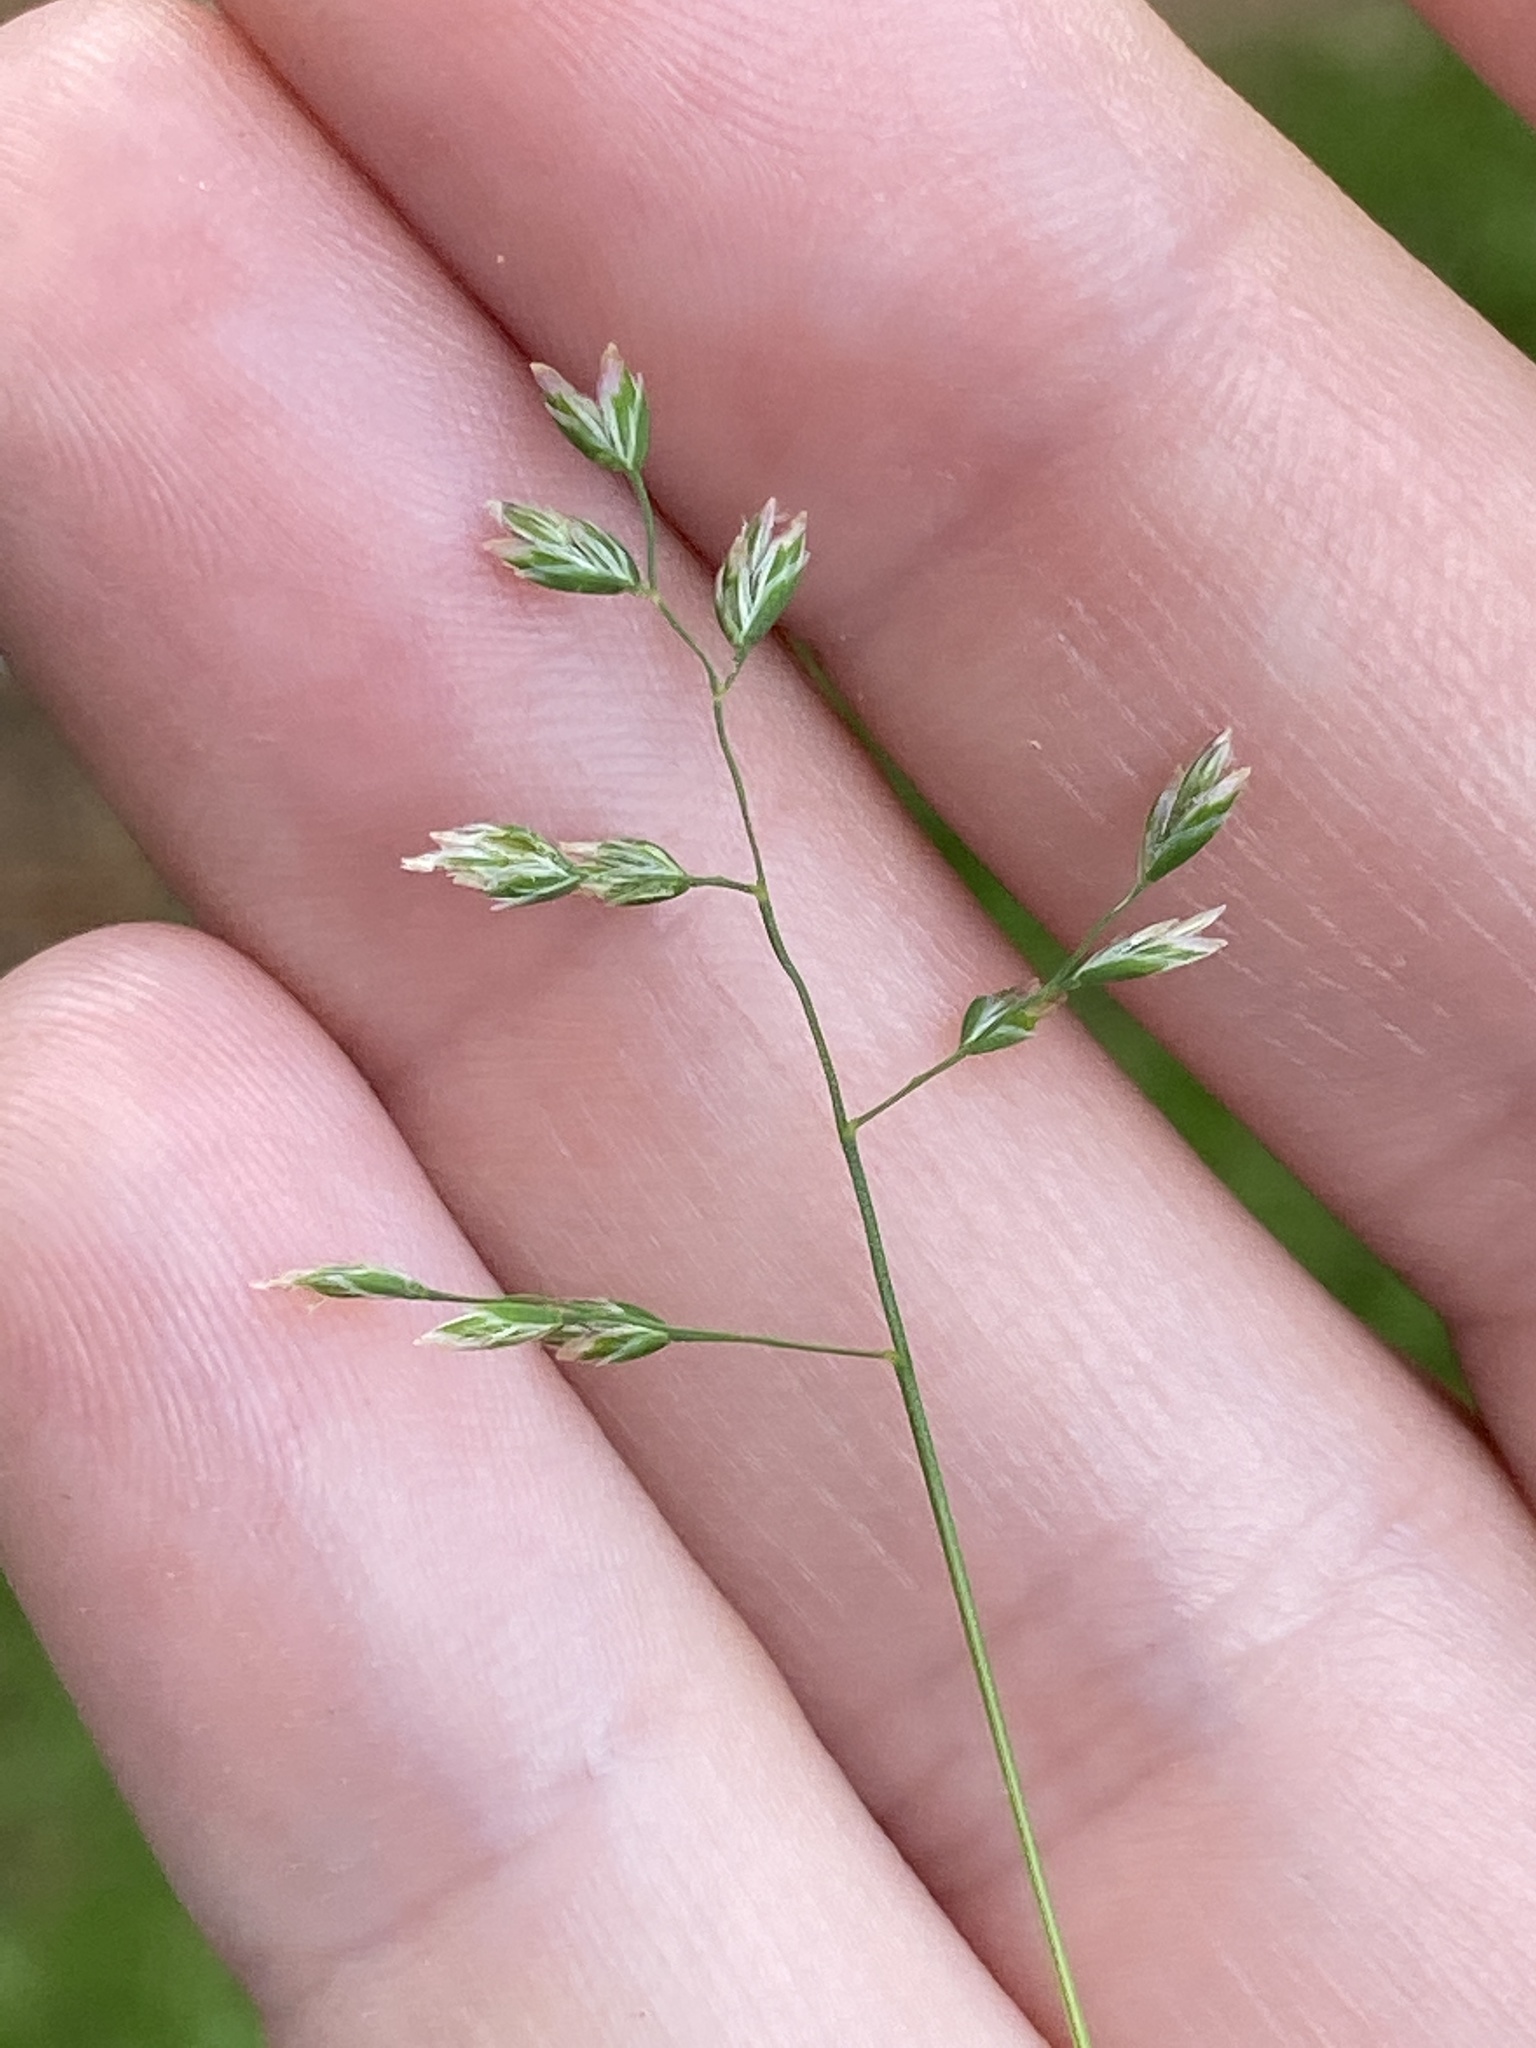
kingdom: Plantae
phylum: Tracheophyta
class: Liliopsida
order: Poales
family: Poaceae
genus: Poa
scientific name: Poa annua
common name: Annual bluegrass
